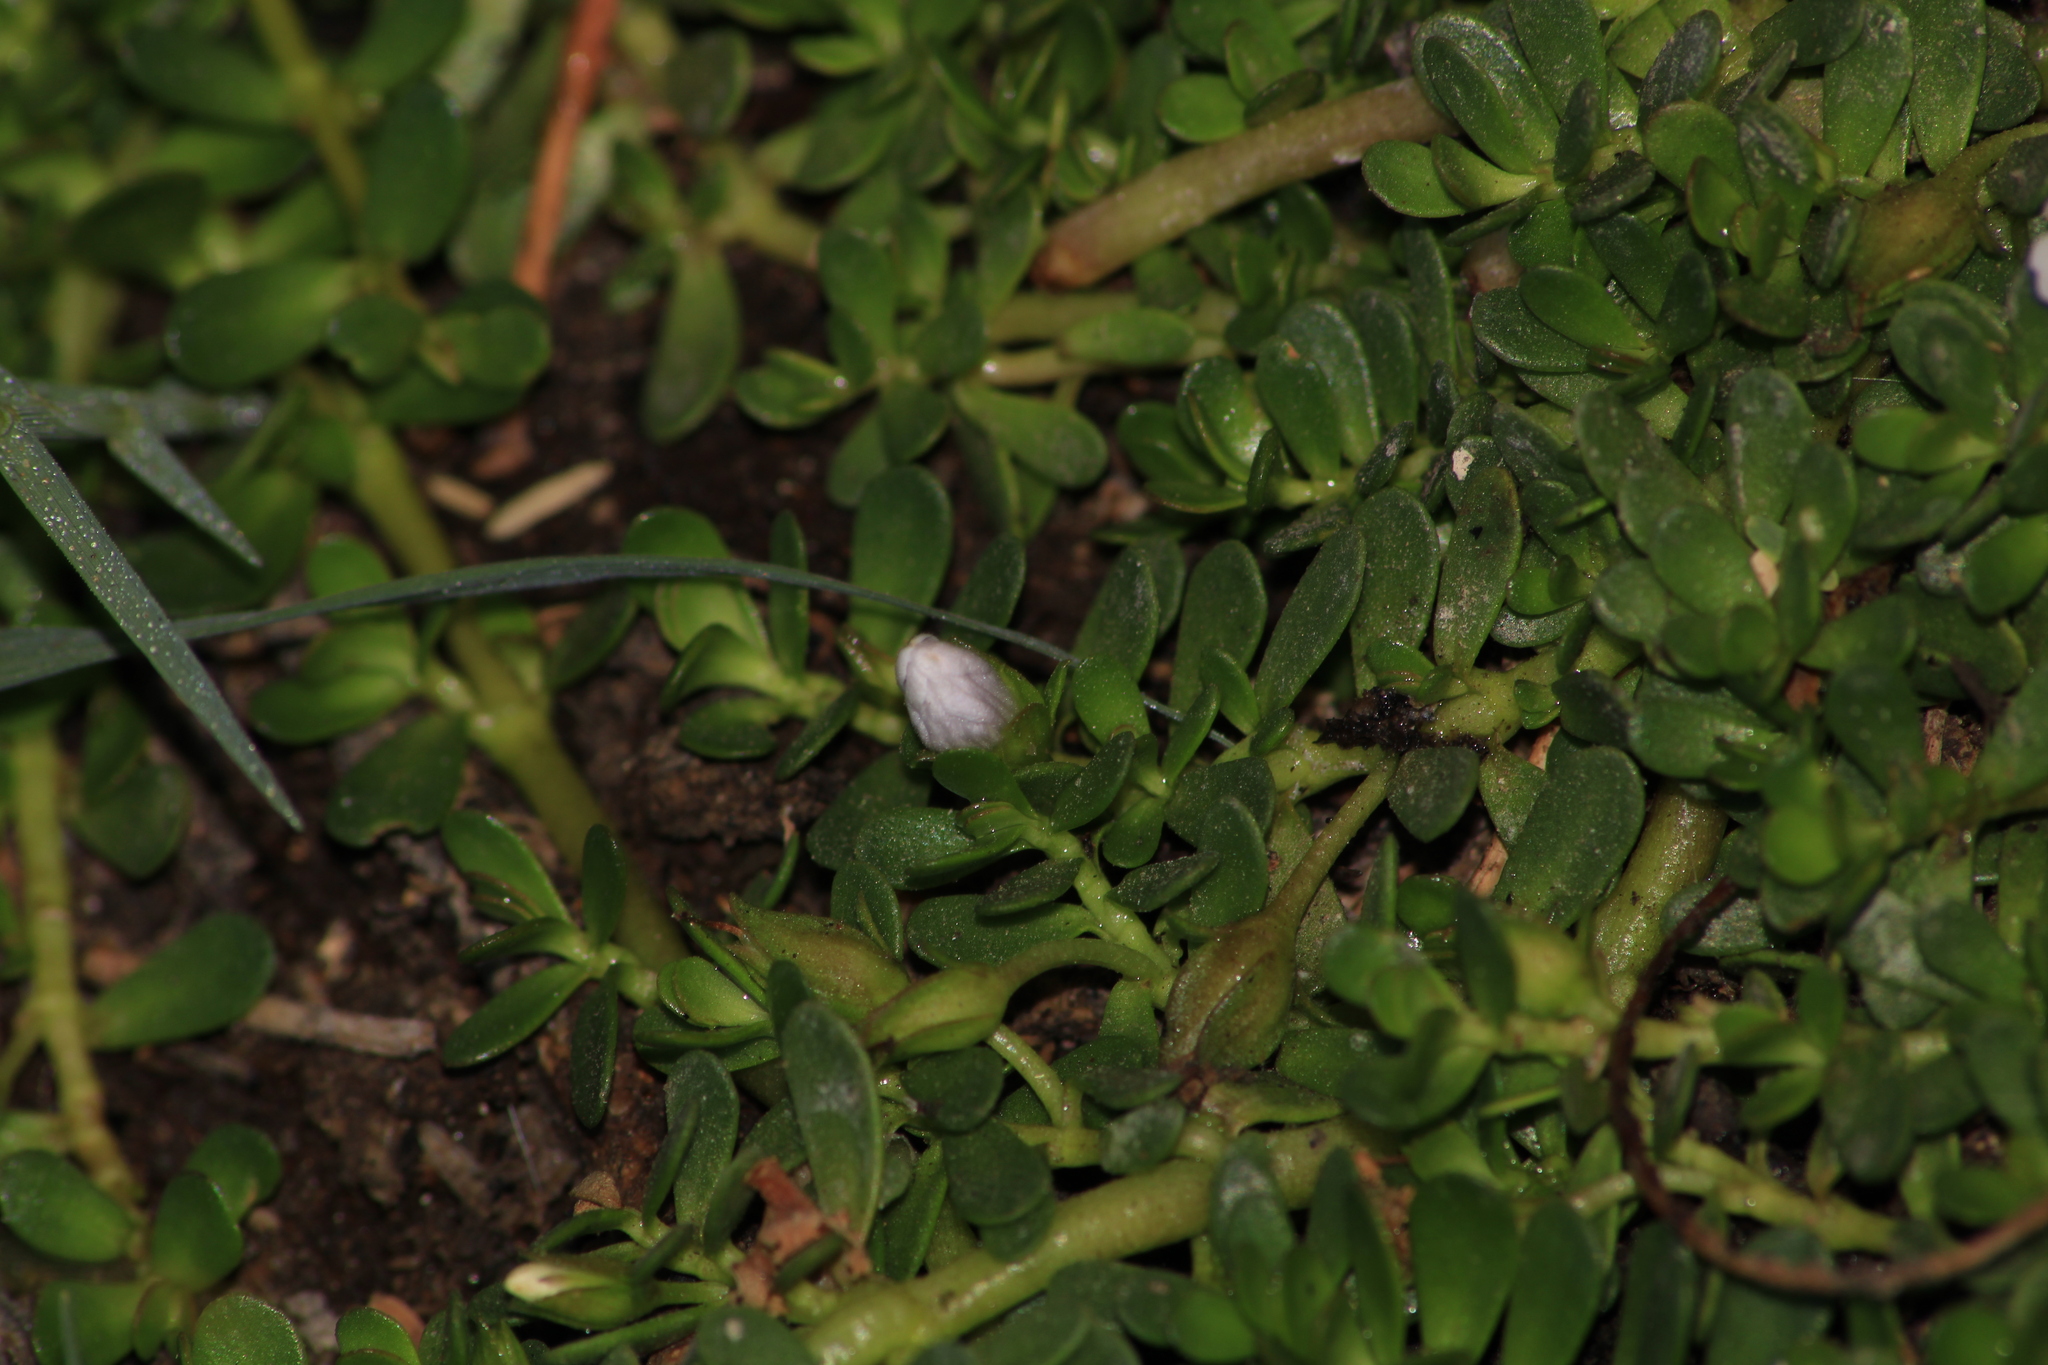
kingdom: Plantae
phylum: Tracheophyta
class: Magnoliopsida
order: Lamiales
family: Plantaginaceae
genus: Bacopa
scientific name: Bacopa monnieri
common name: Indian-pennywort
